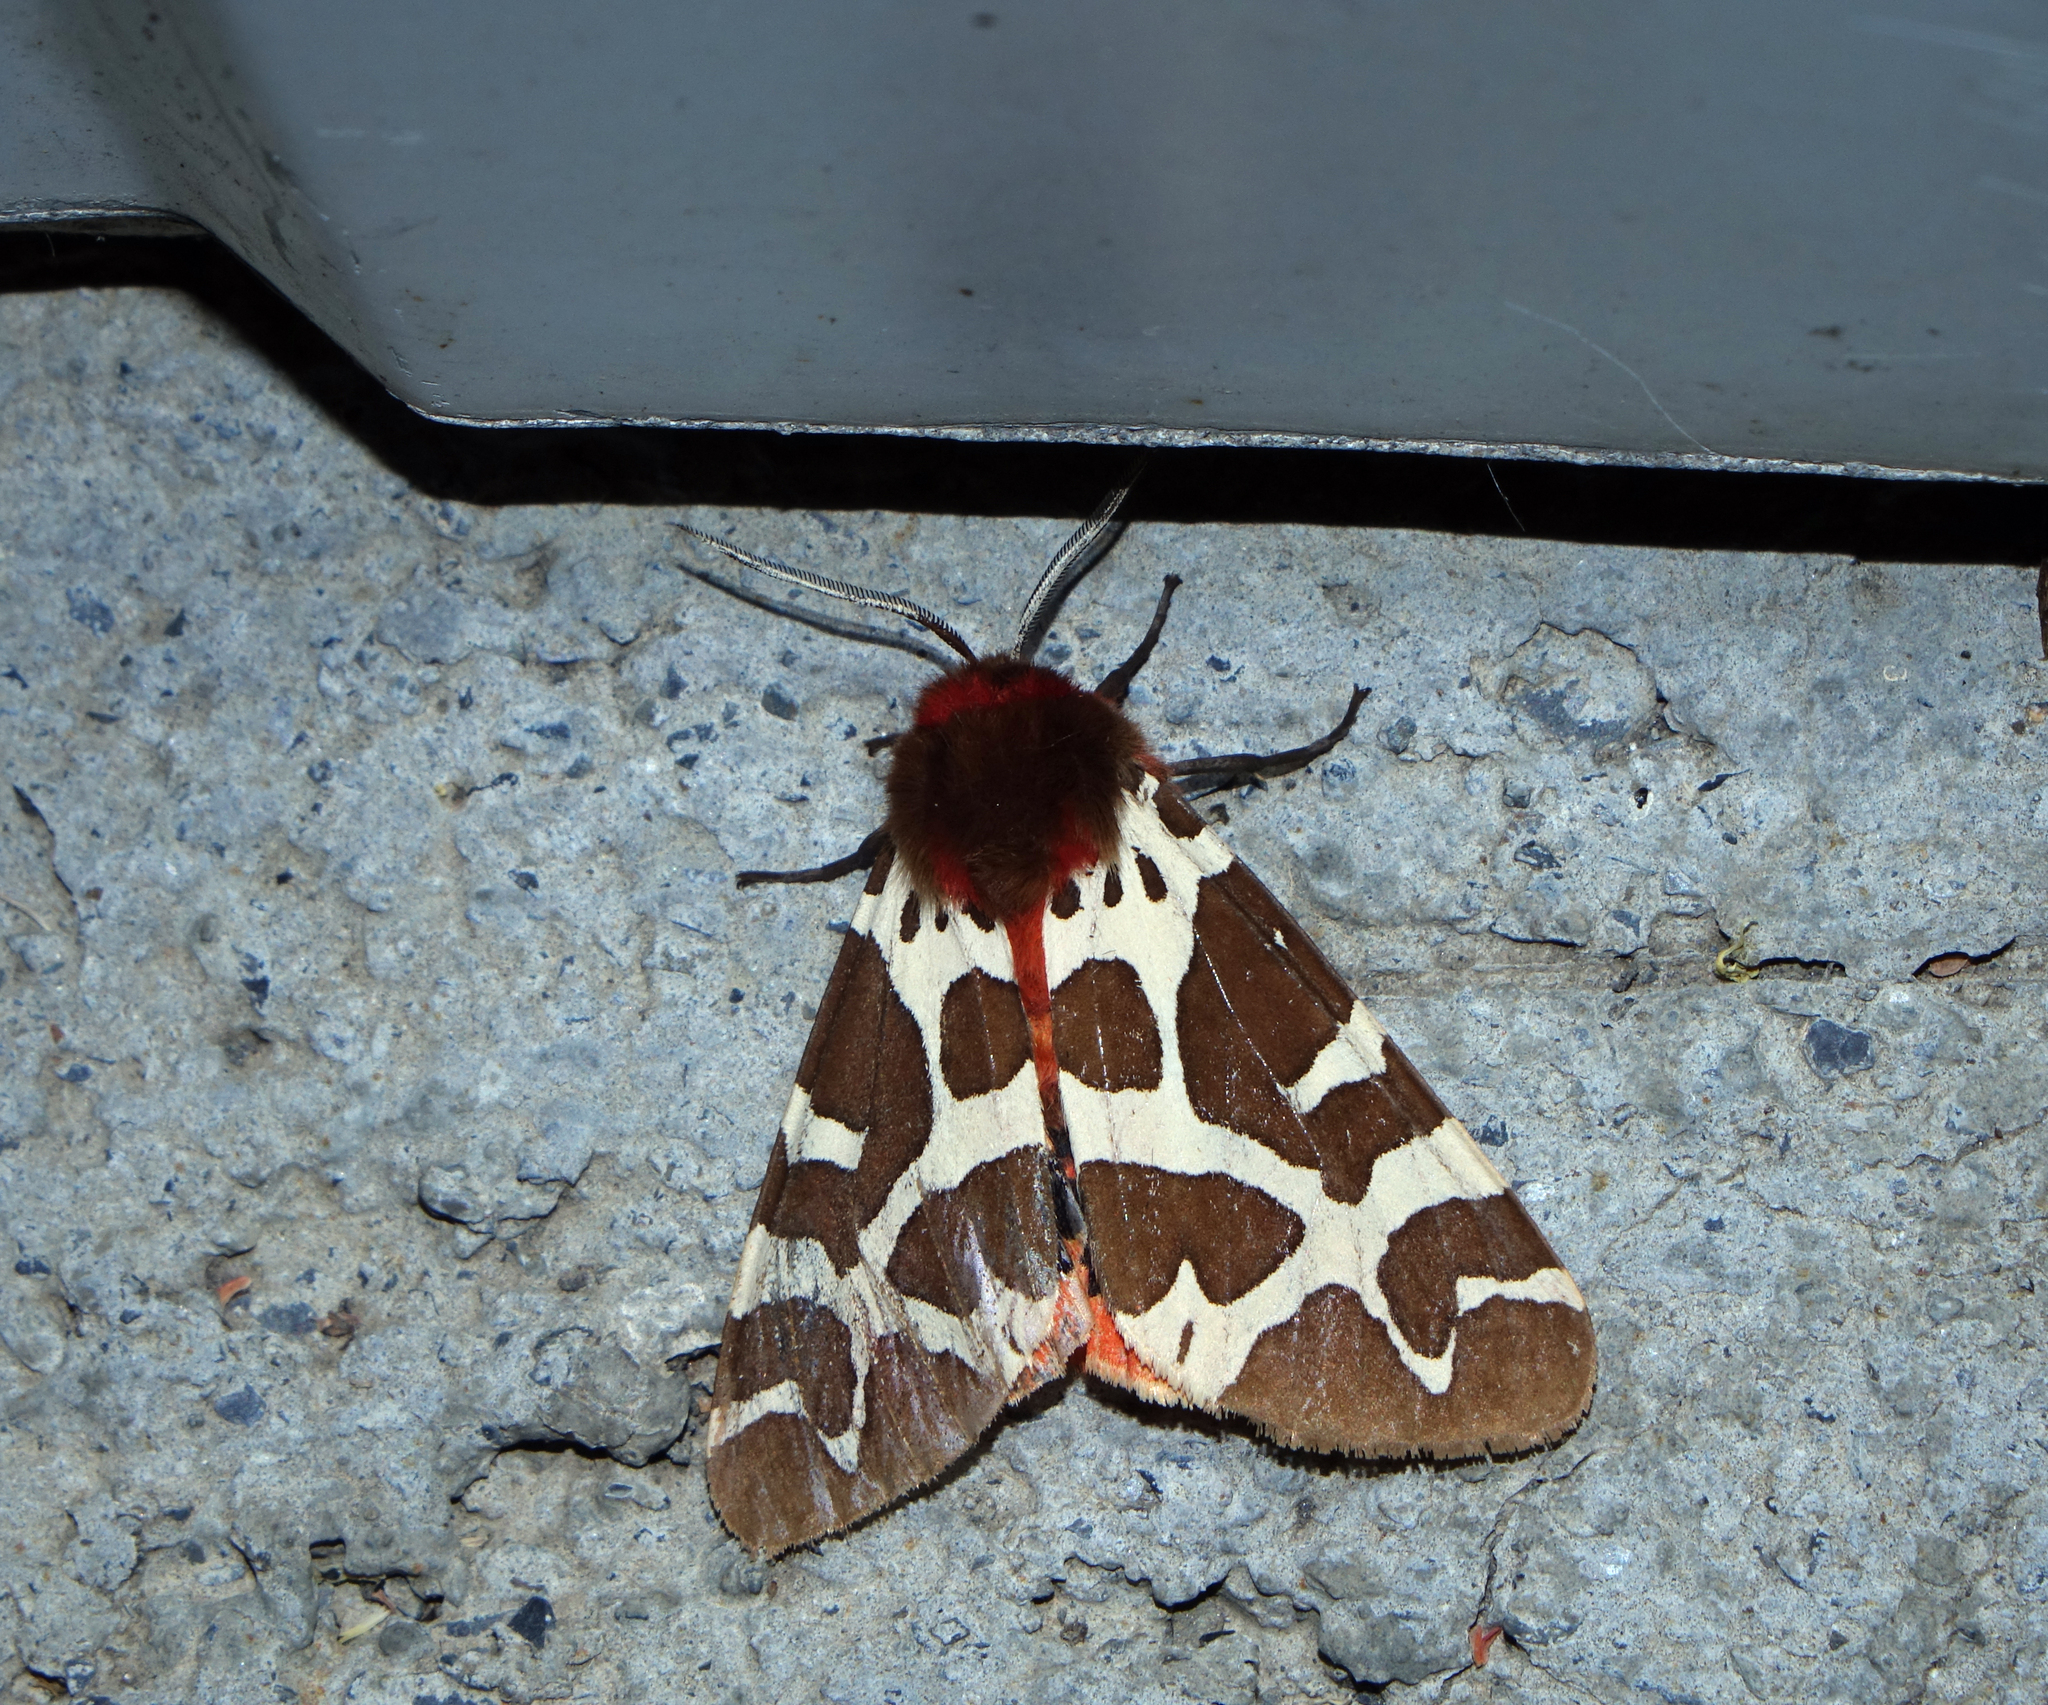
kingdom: Animalia
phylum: Arthropoda
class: Insecta
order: Lepidoptera
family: Erebidae
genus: Arctia
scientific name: Arctia caja
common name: Garden tiger
